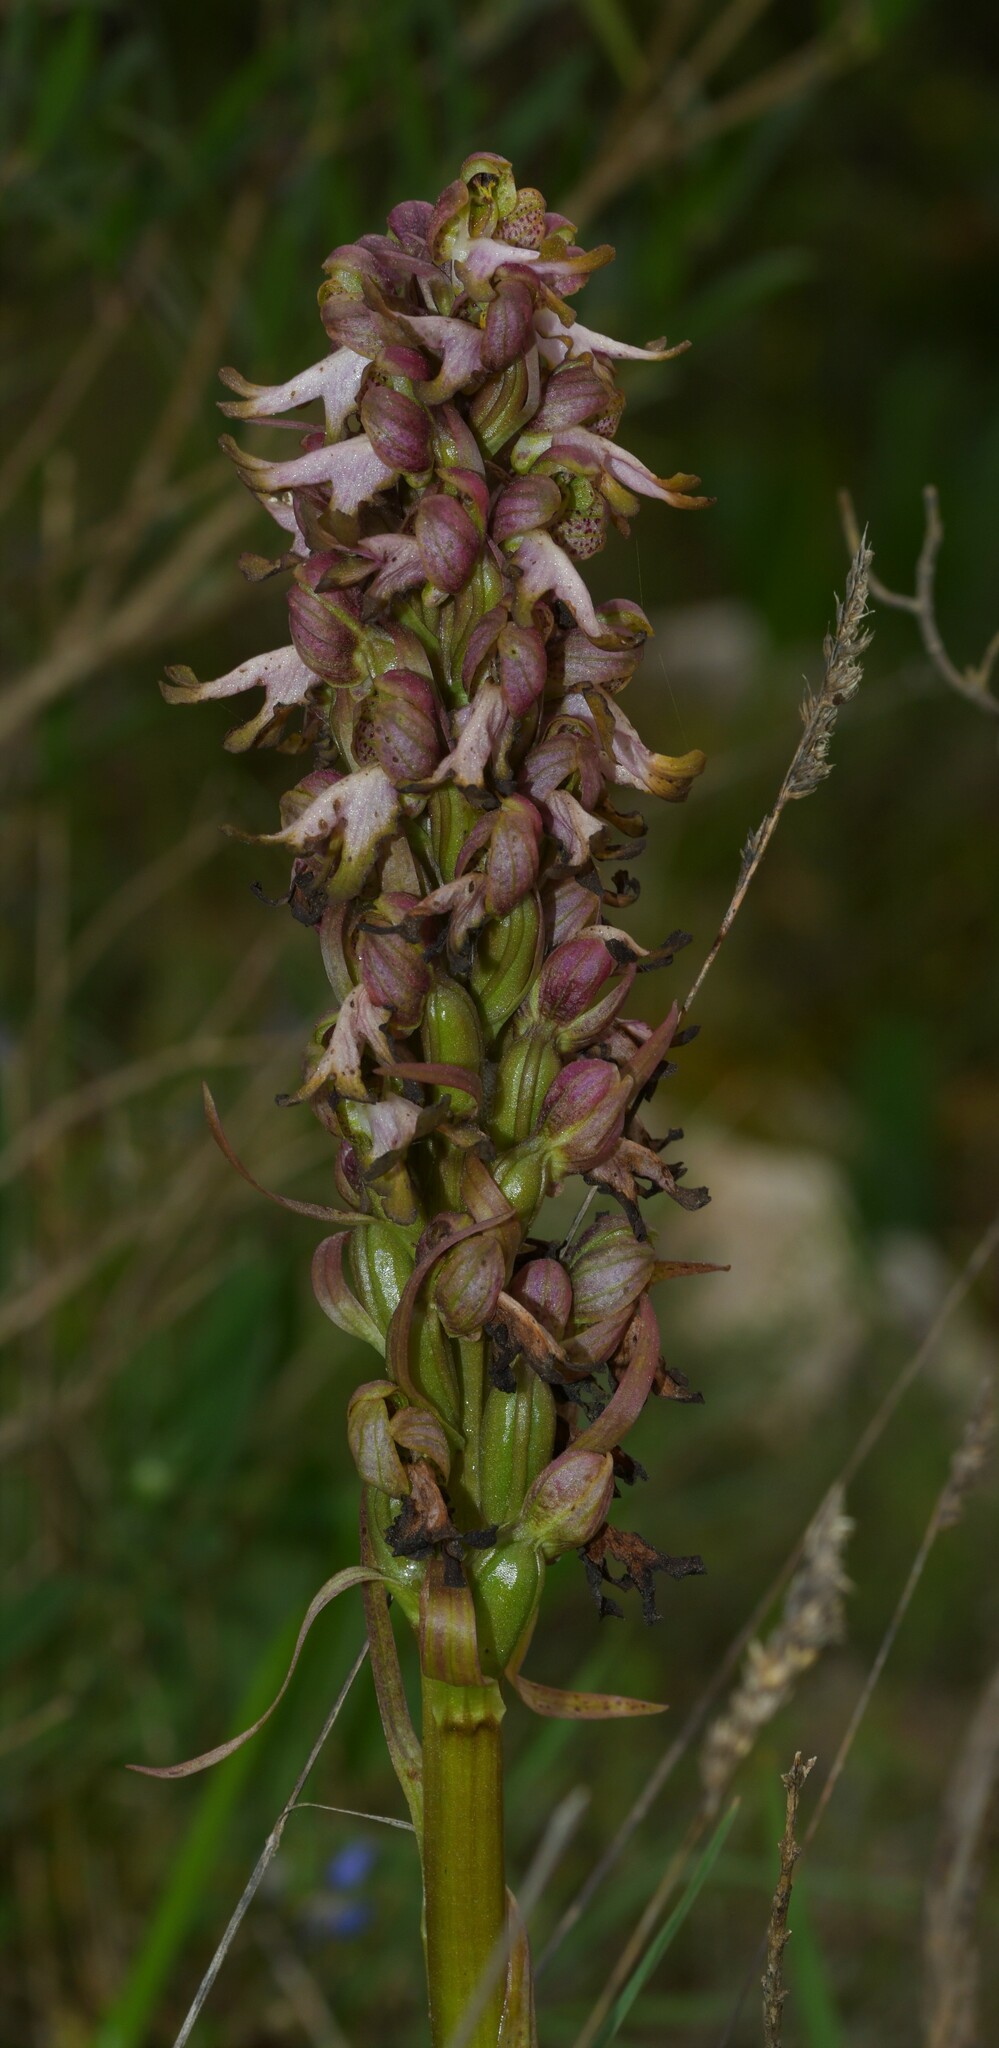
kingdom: Plantae
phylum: Tracheophyta
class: Liliopsida
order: Asparagales
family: Orchidaceae
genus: Himantoglossum
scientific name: Himantoglossum robertianum
